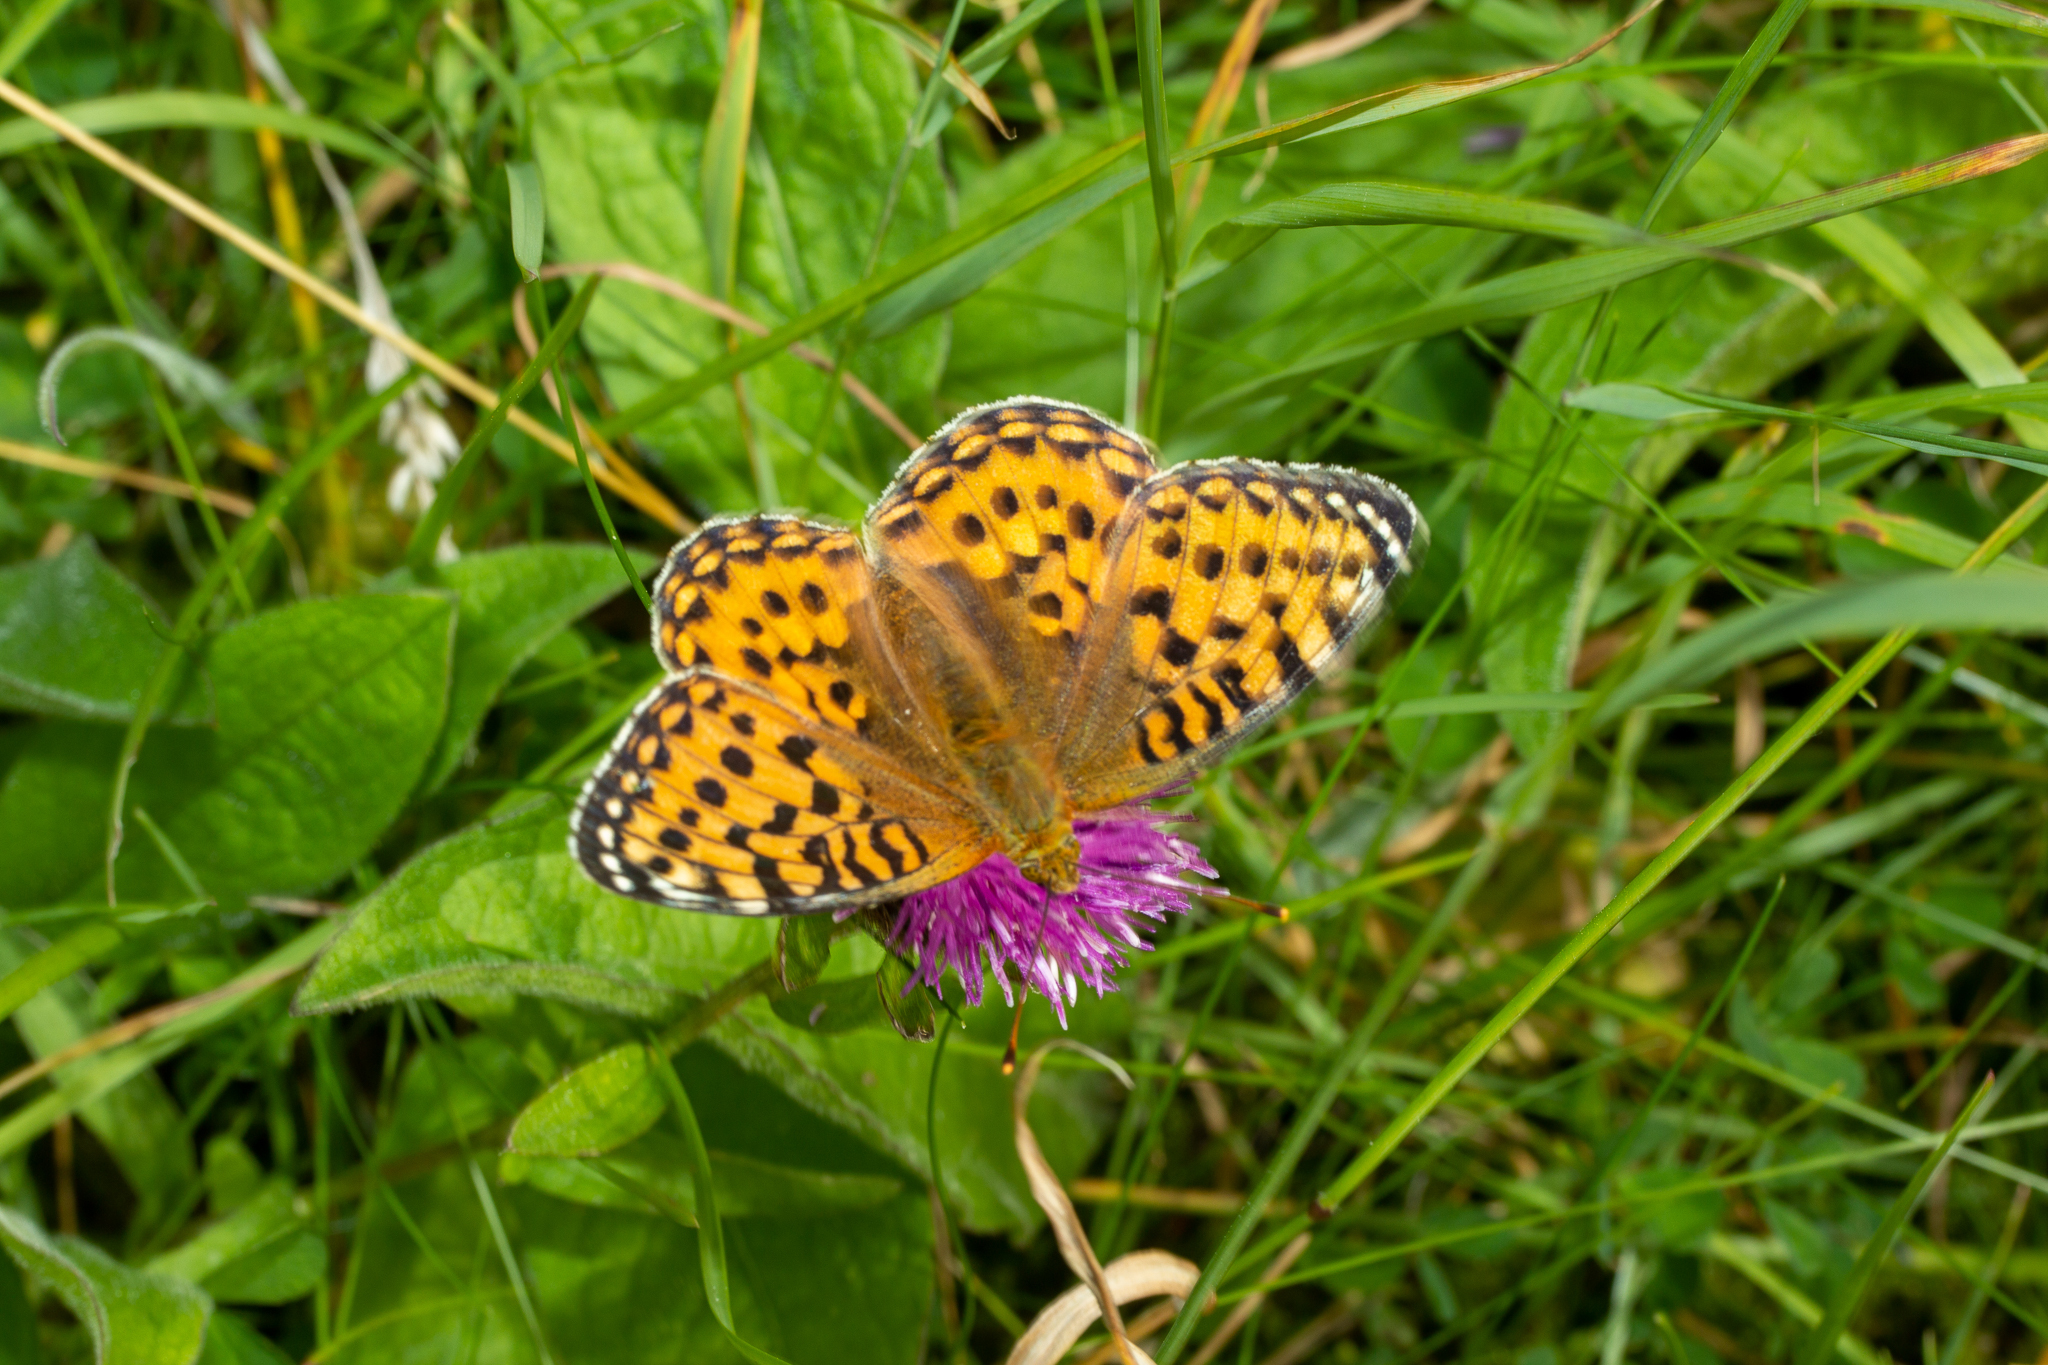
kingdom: Animalia
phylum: Arthropoda
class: Insecta
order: Lepidoptera
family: Nymphalidae
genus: Speyeria
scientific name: Speyeria aglaja
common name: Dark green fritillary
